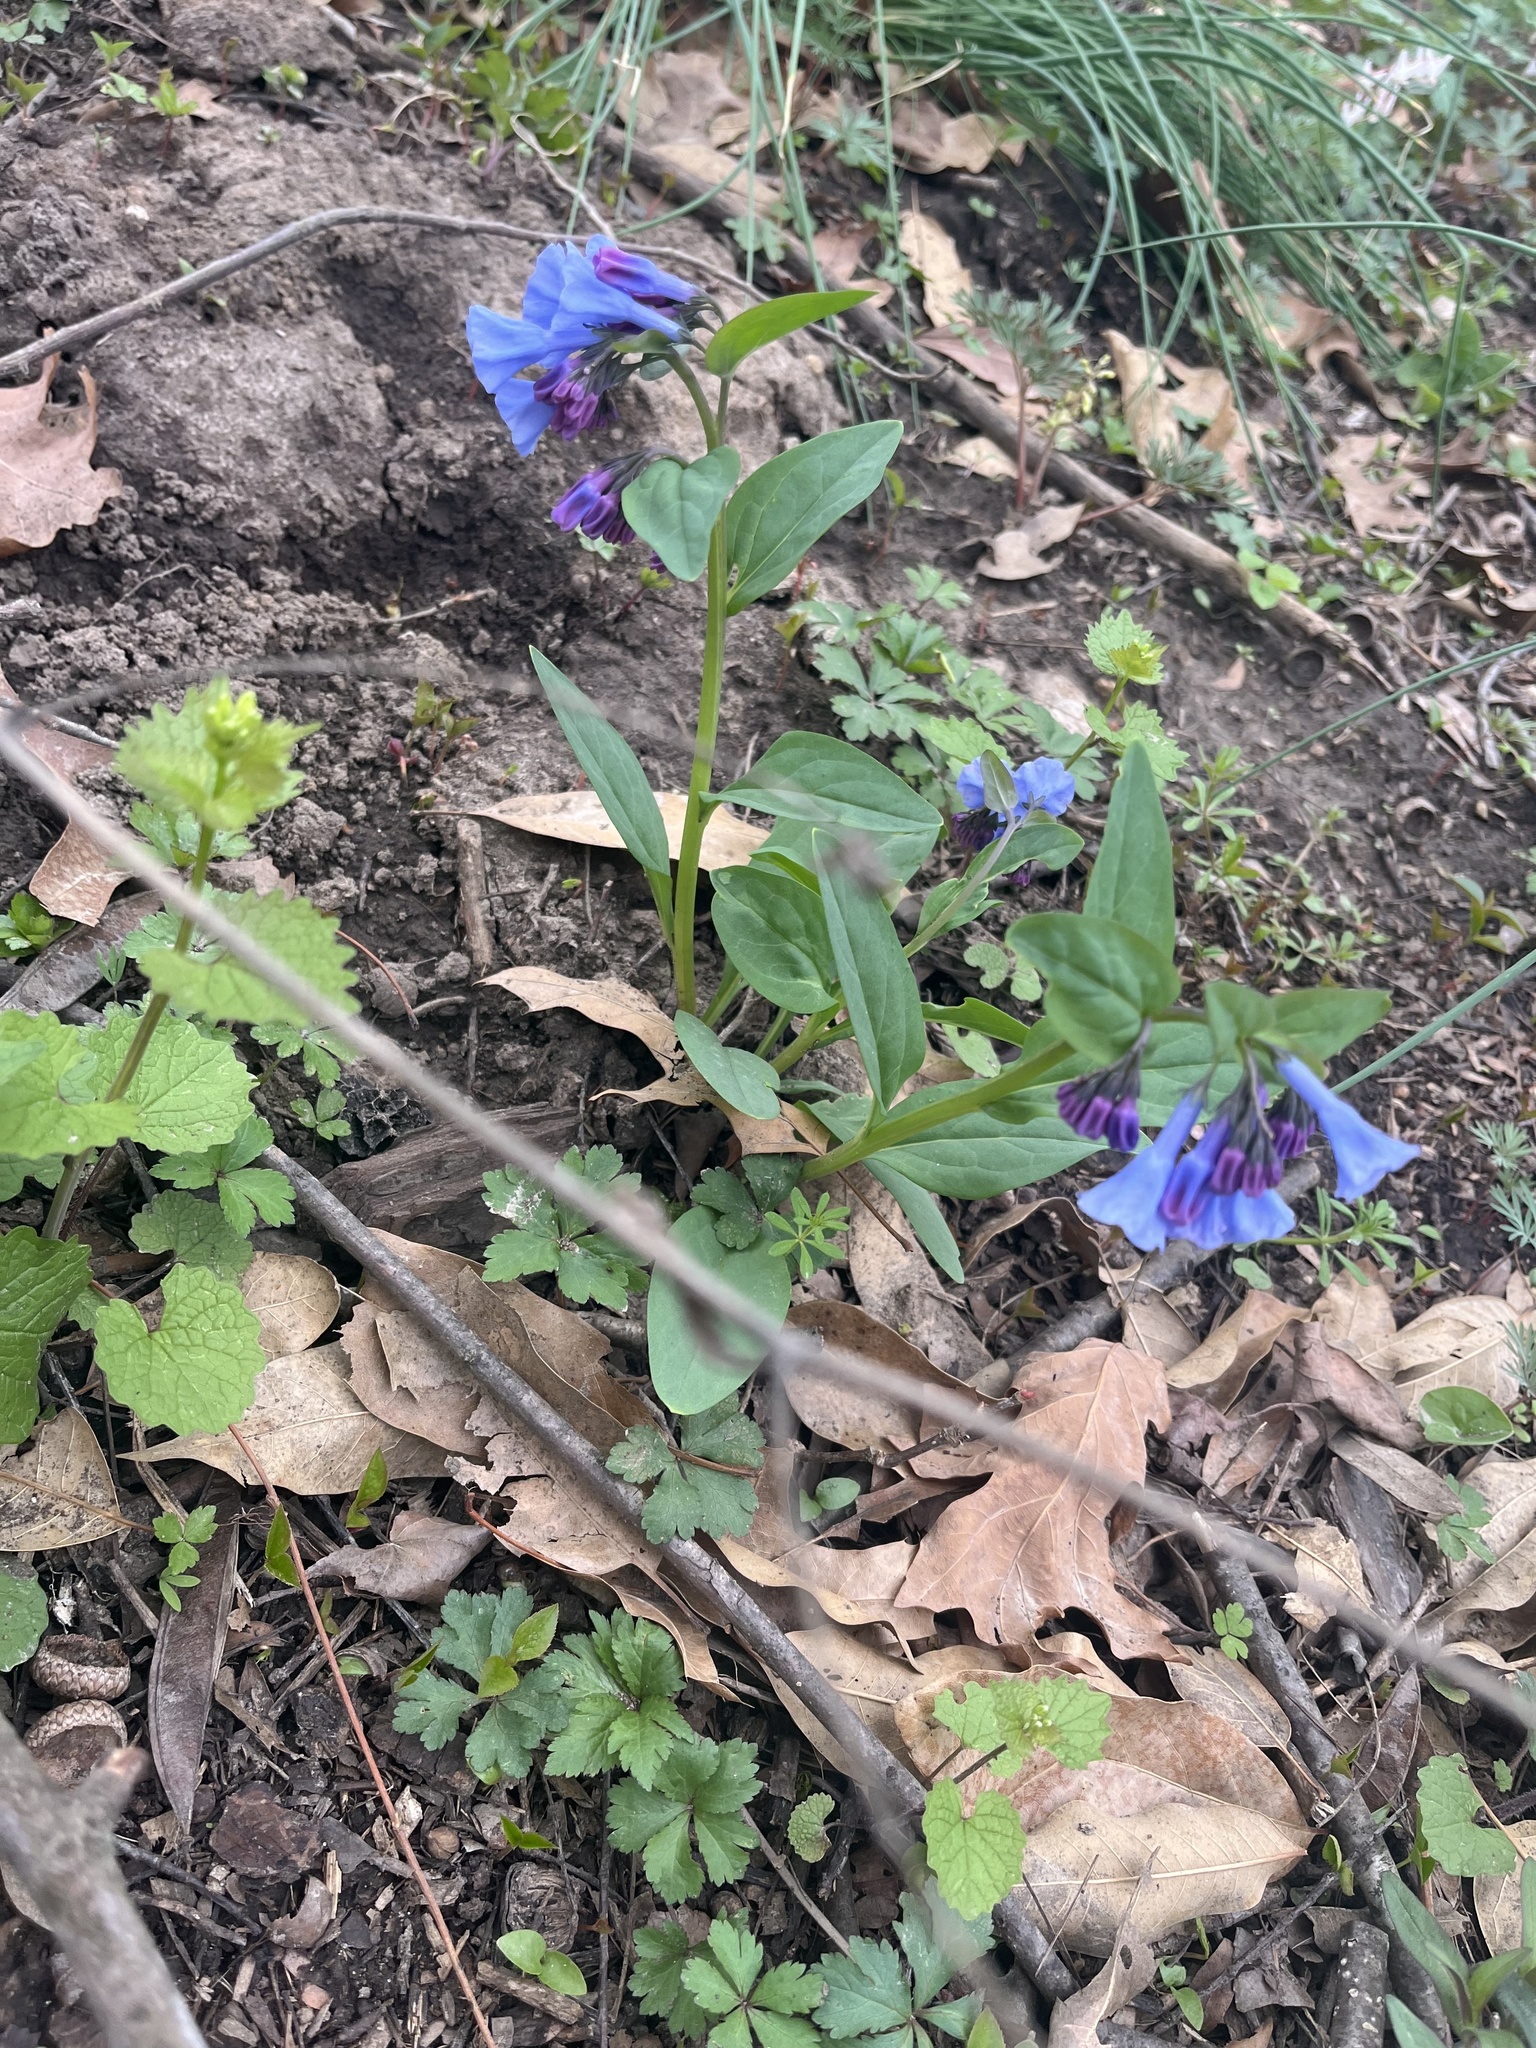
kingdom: Plantae
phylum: Tracheophyta
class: Magnoliopsida
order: Boraginales
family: Boraginaceae
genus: Mertensia
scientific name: Mertensia virginica
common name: Virginia bluebells
